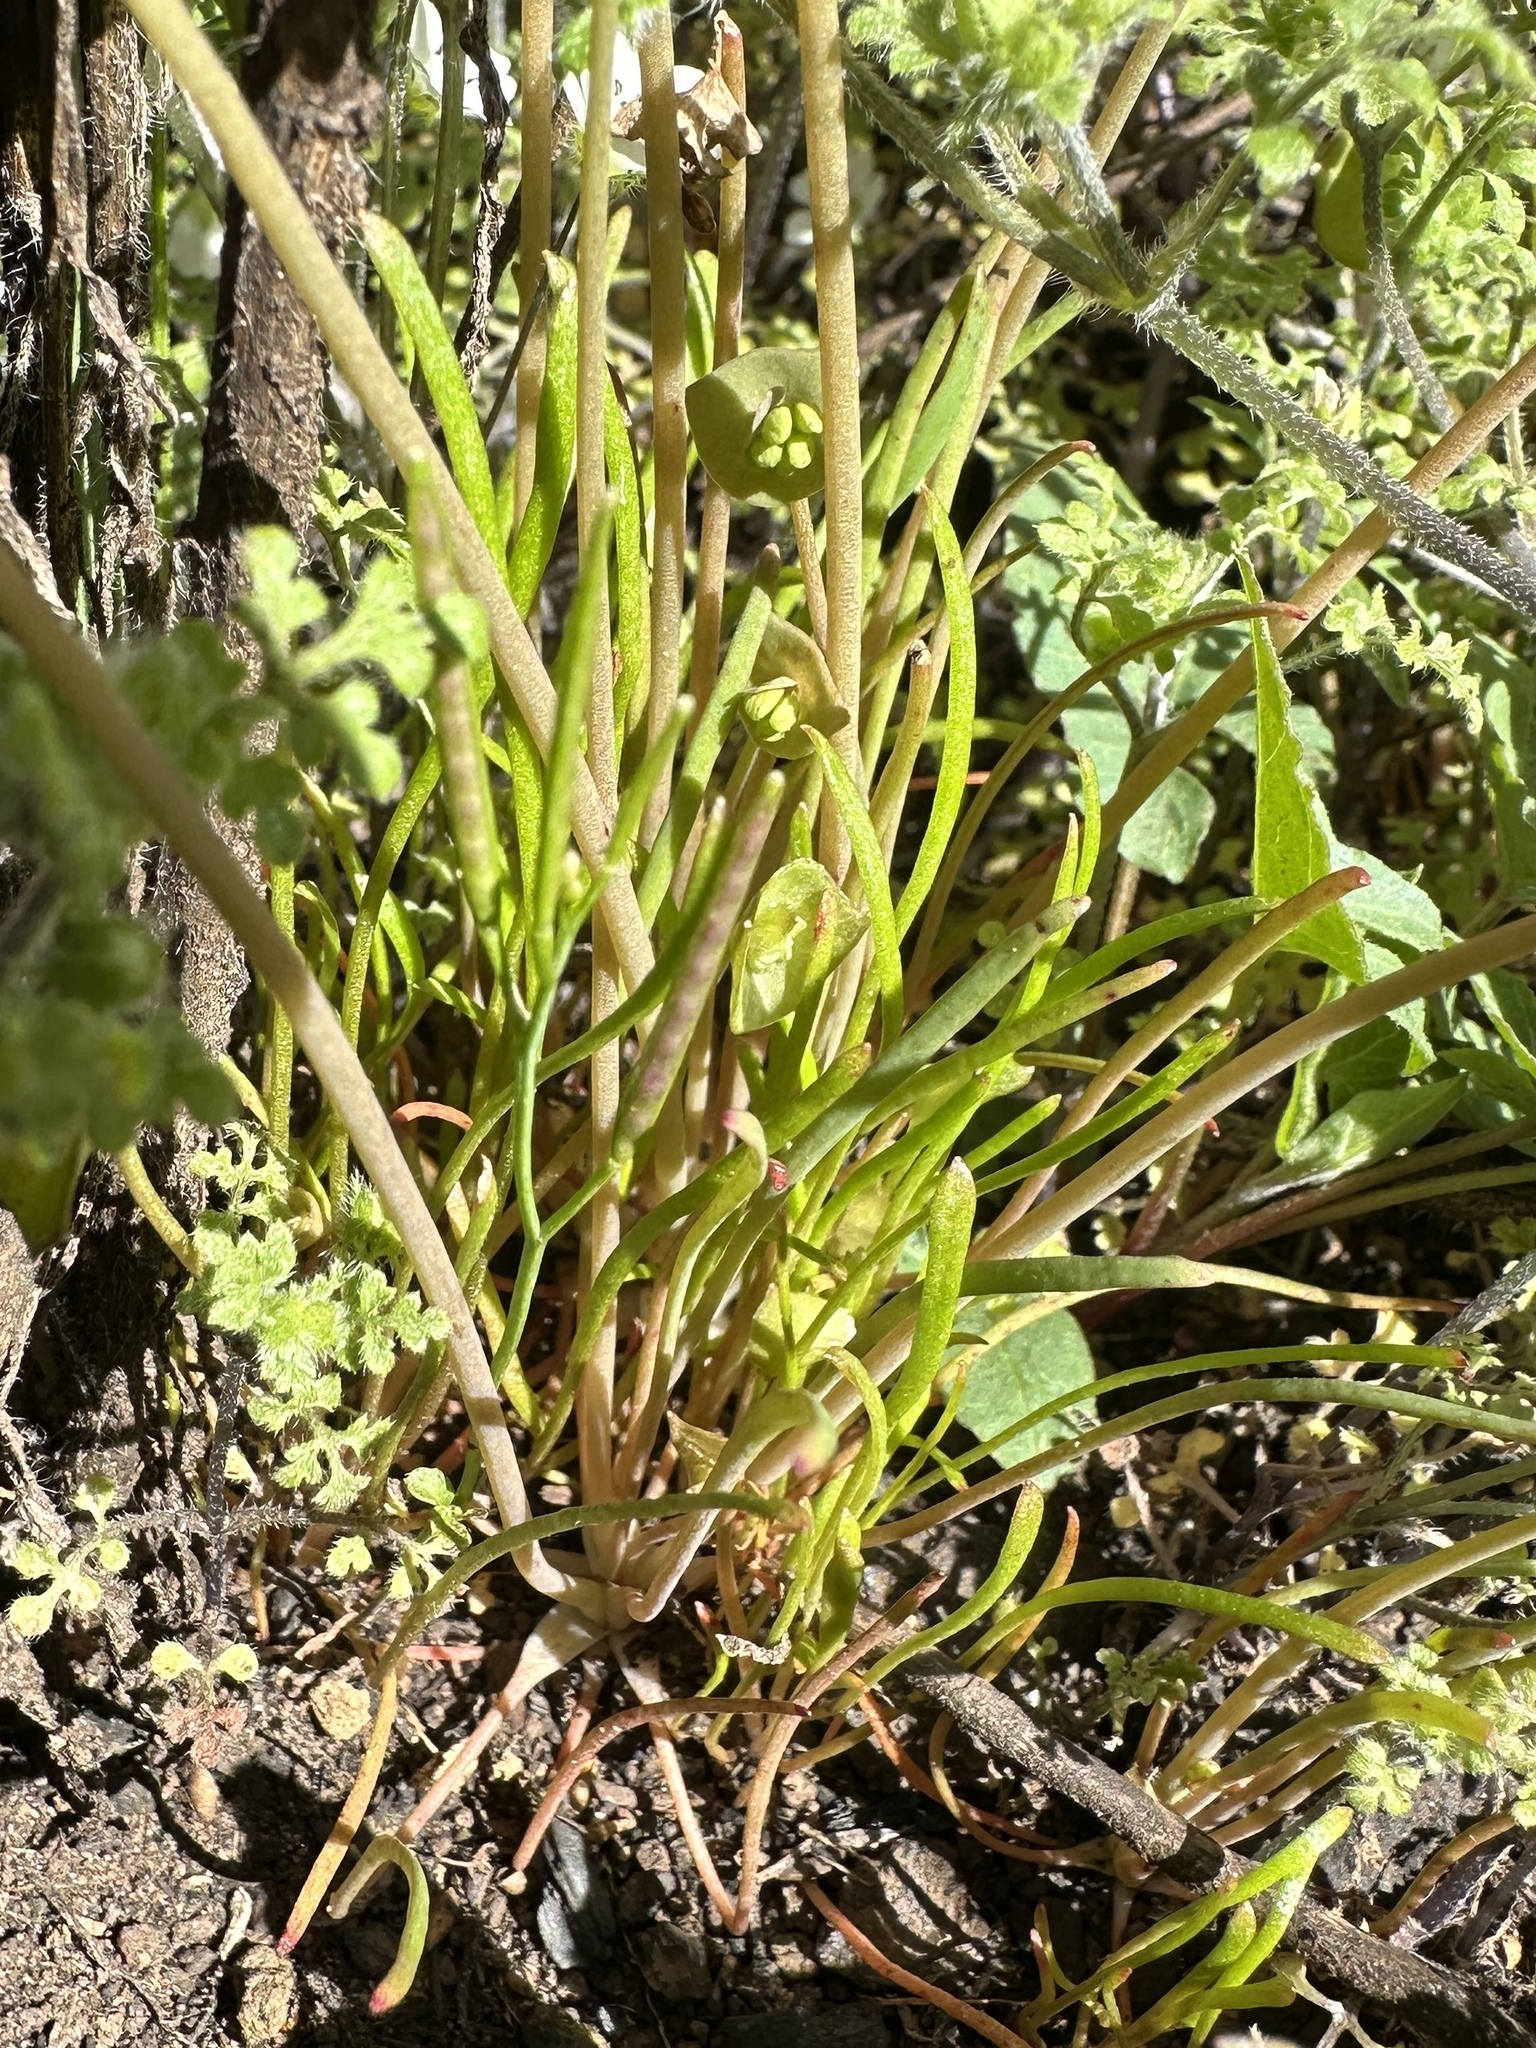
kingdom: Plantae
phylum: Tracheophyta
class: Magnoliopsida
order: Caryophyllales
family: Montiaceae
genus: Claytonia
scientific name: Claytonia parviflora
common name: Indian-lettuce
